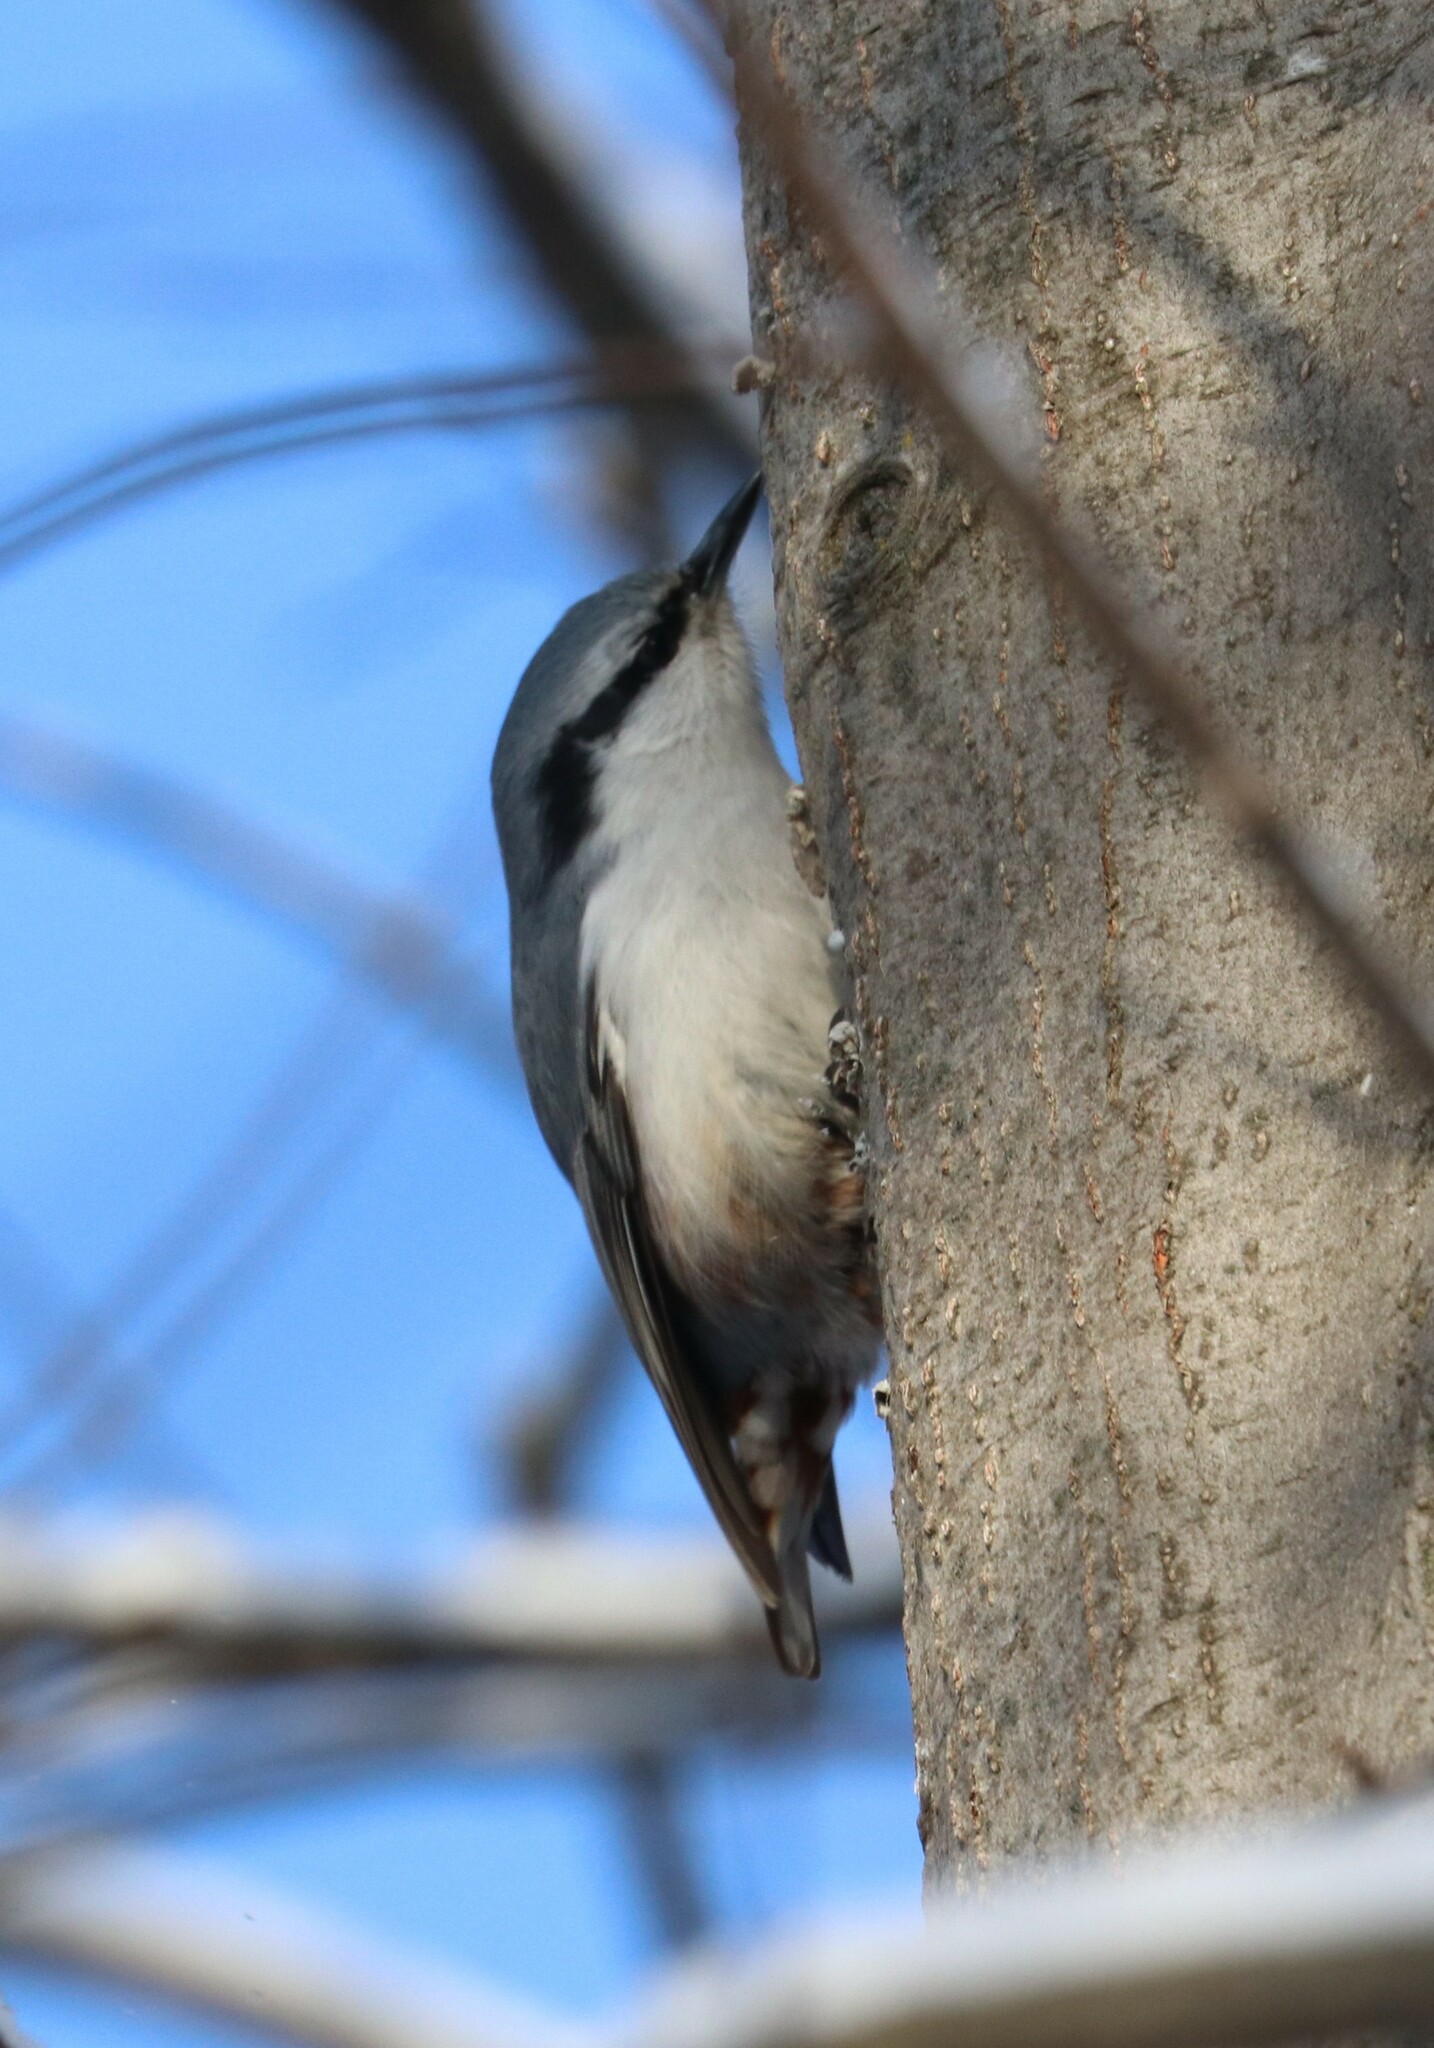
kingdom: Animalia
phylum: Chordata
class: Aves
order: Passeriformes
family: Sittidae
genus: Sitta
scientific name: Sitta europaea
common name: Eurasian nuthatch
